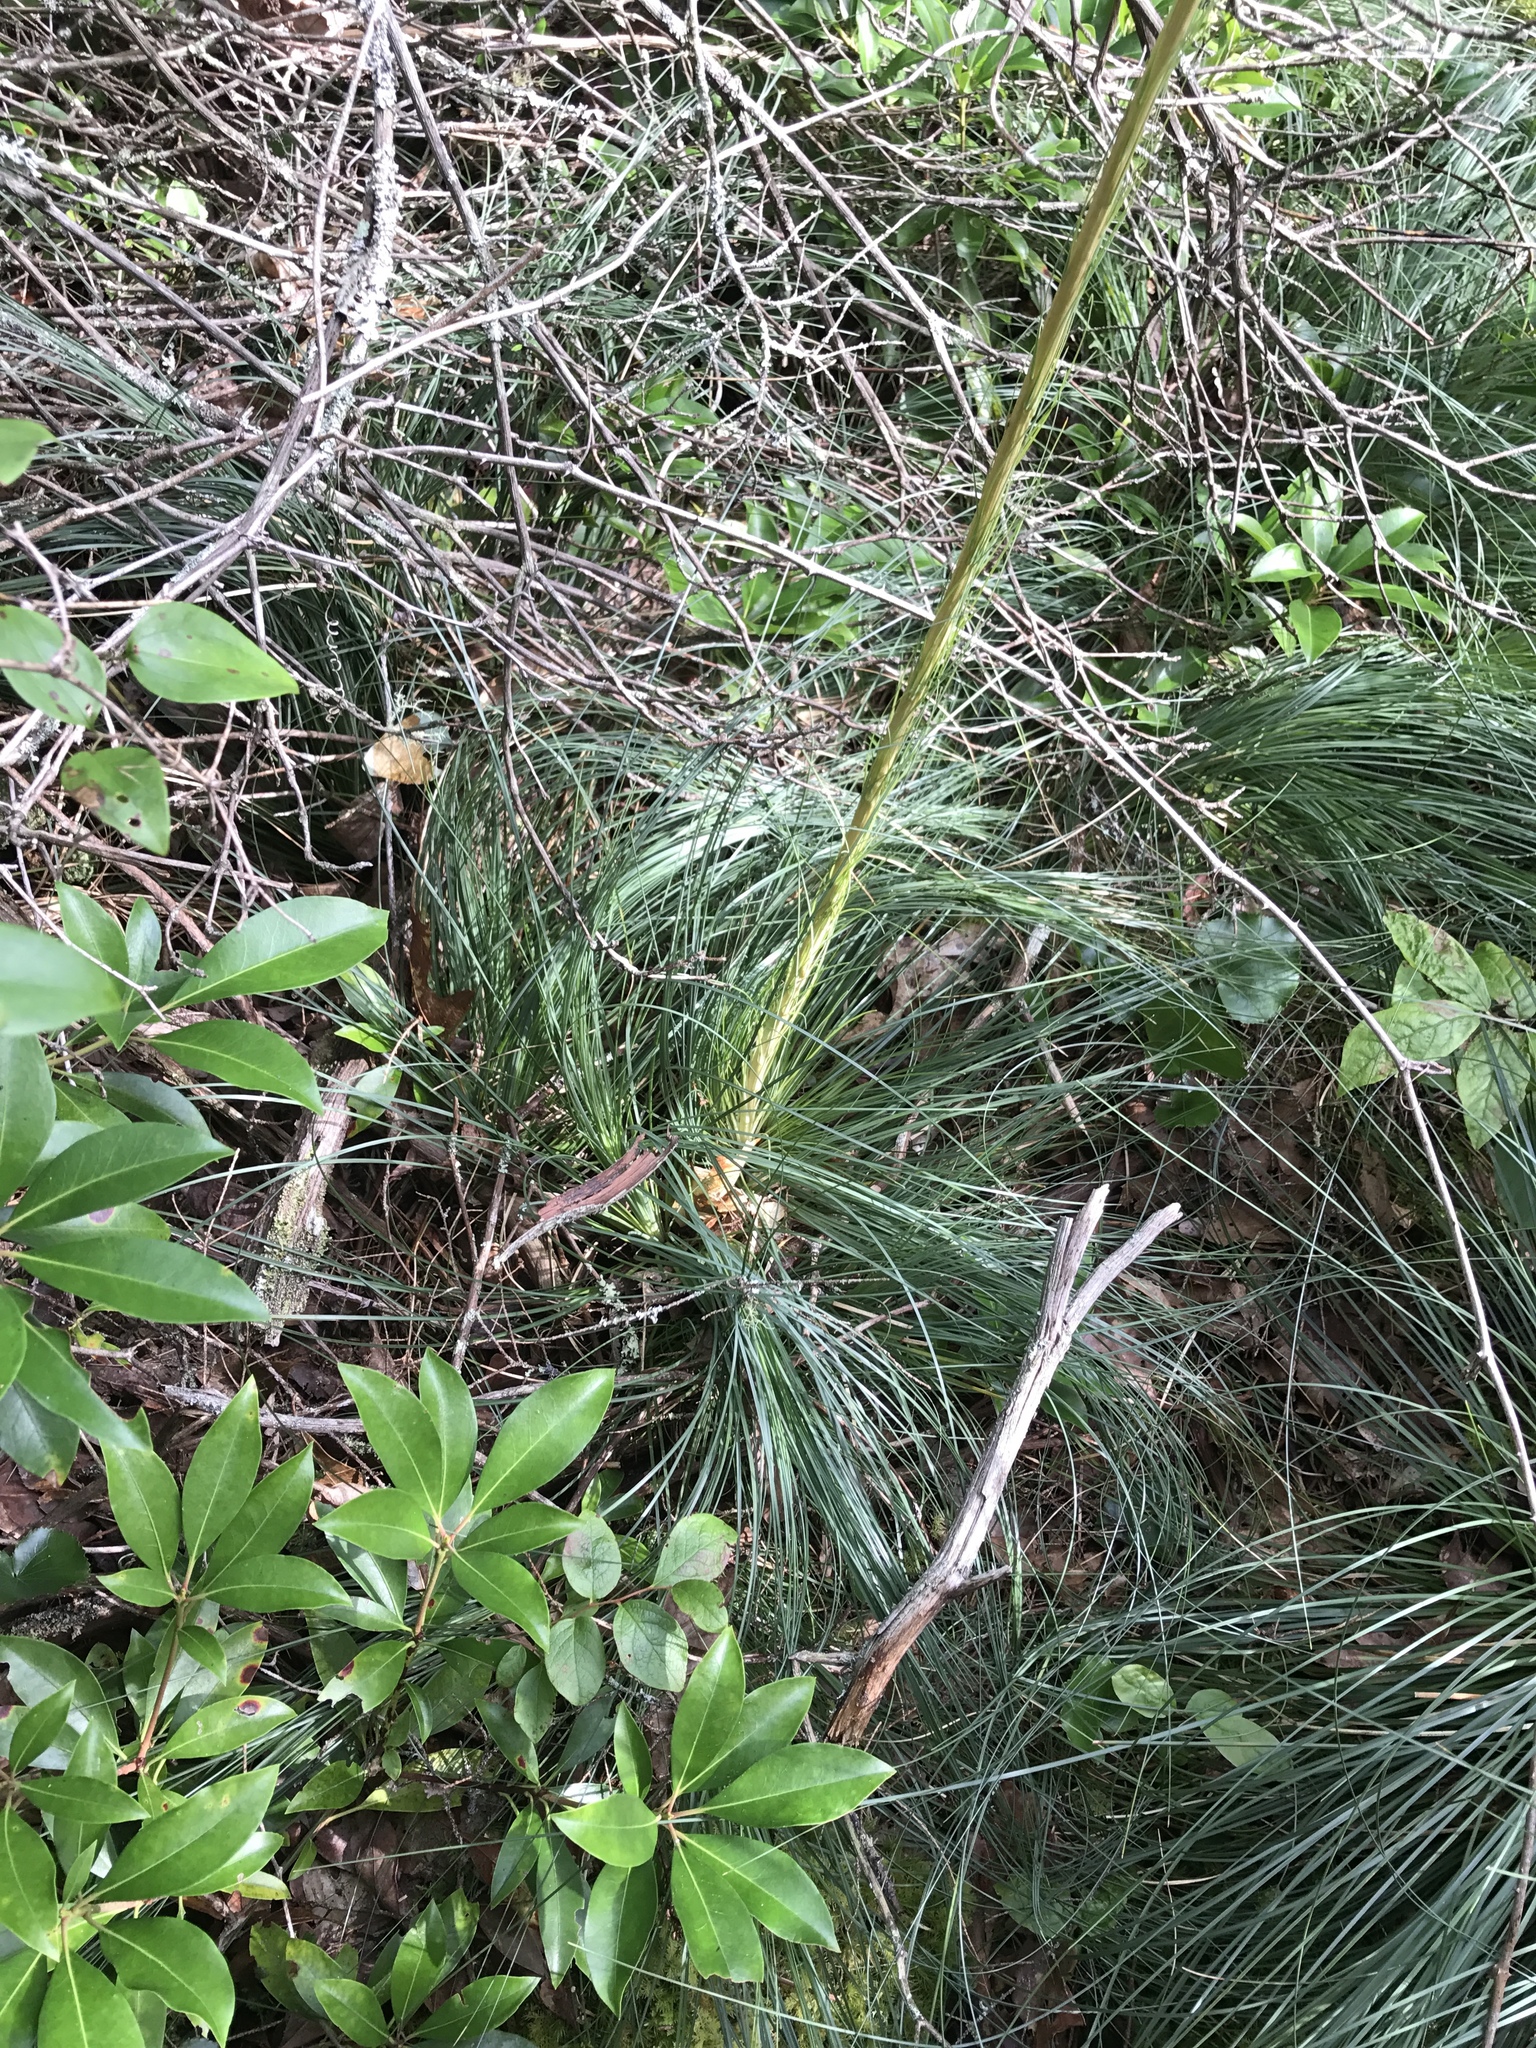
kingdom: Plantae
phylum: Tracheophyta
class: Liliopsida
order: Liliales
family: Melanthiaceae
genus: Xerophyllum
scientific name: Xerophyllum asphodeloides
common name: Mountain-asphodel
